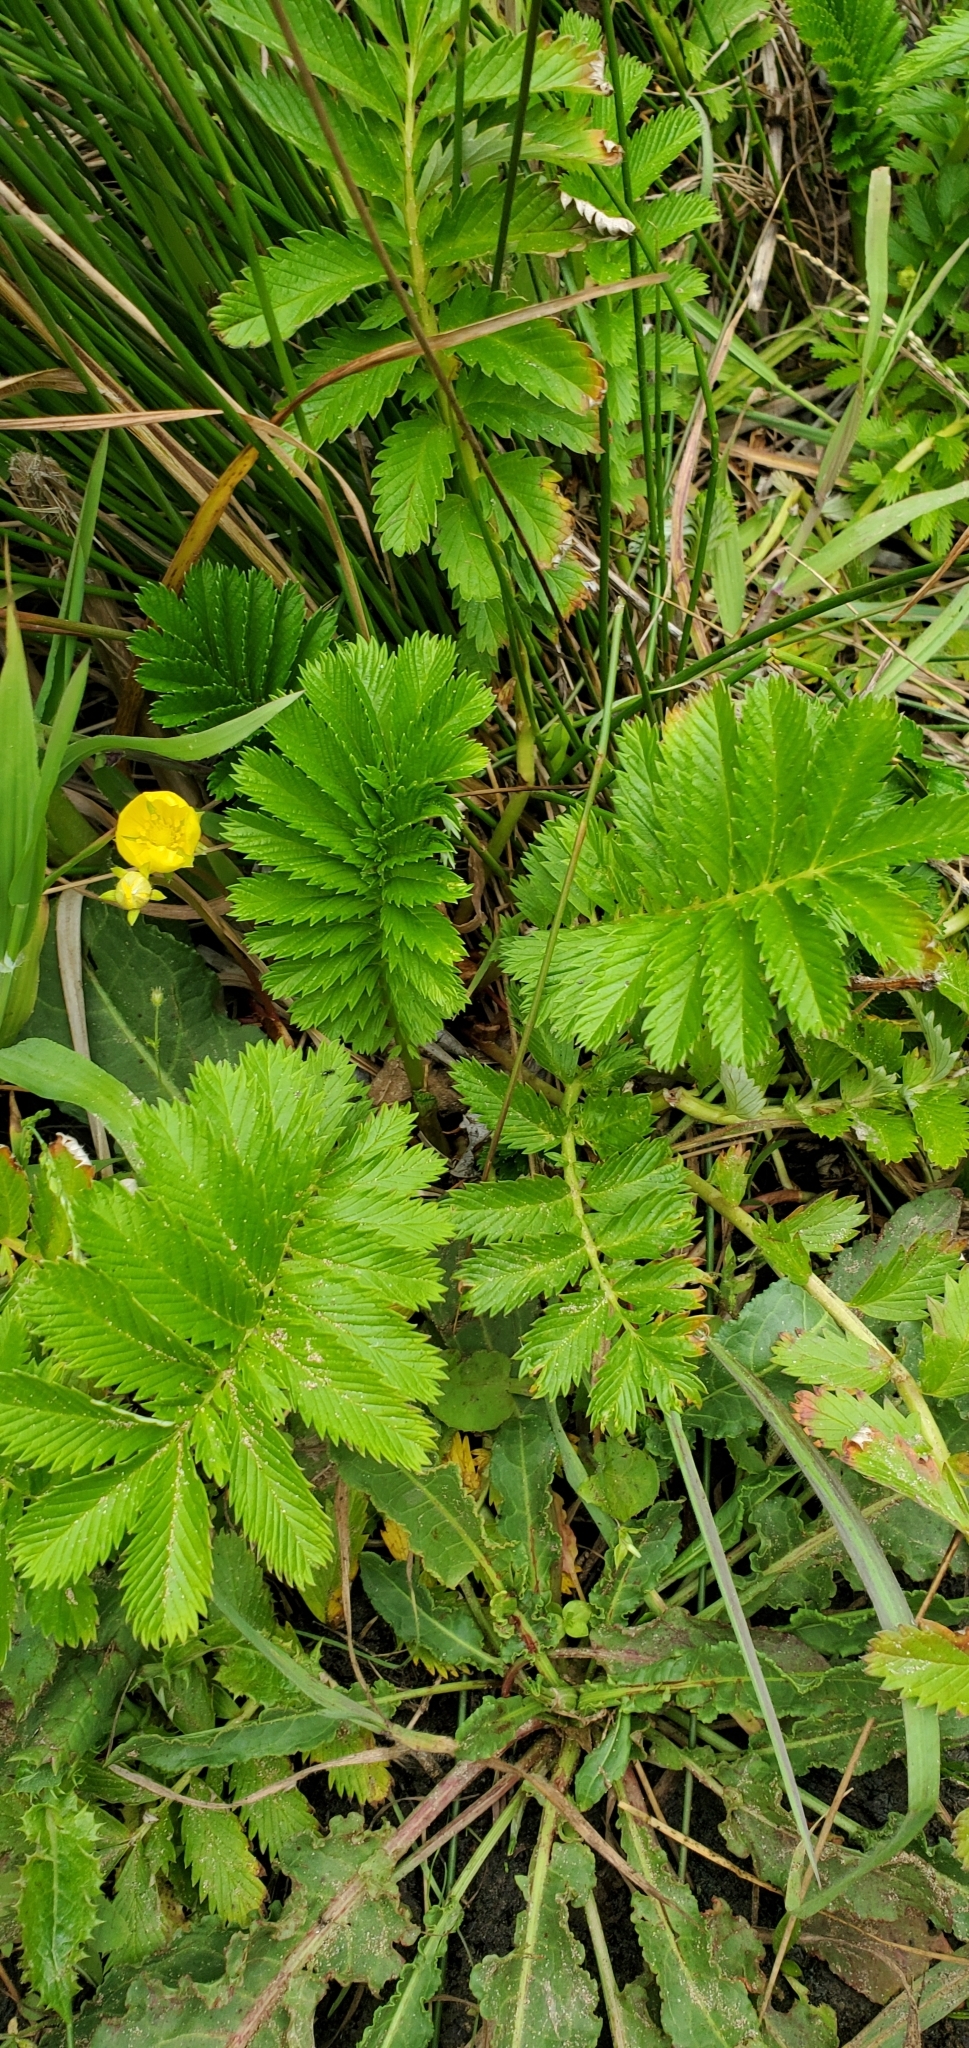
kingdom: Plantae
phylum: Tracheophyta
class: Magnoliopsida
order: Rosales
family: Rosaceae
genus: Argentina
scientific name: Argentina anserina
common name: Common silverweed
